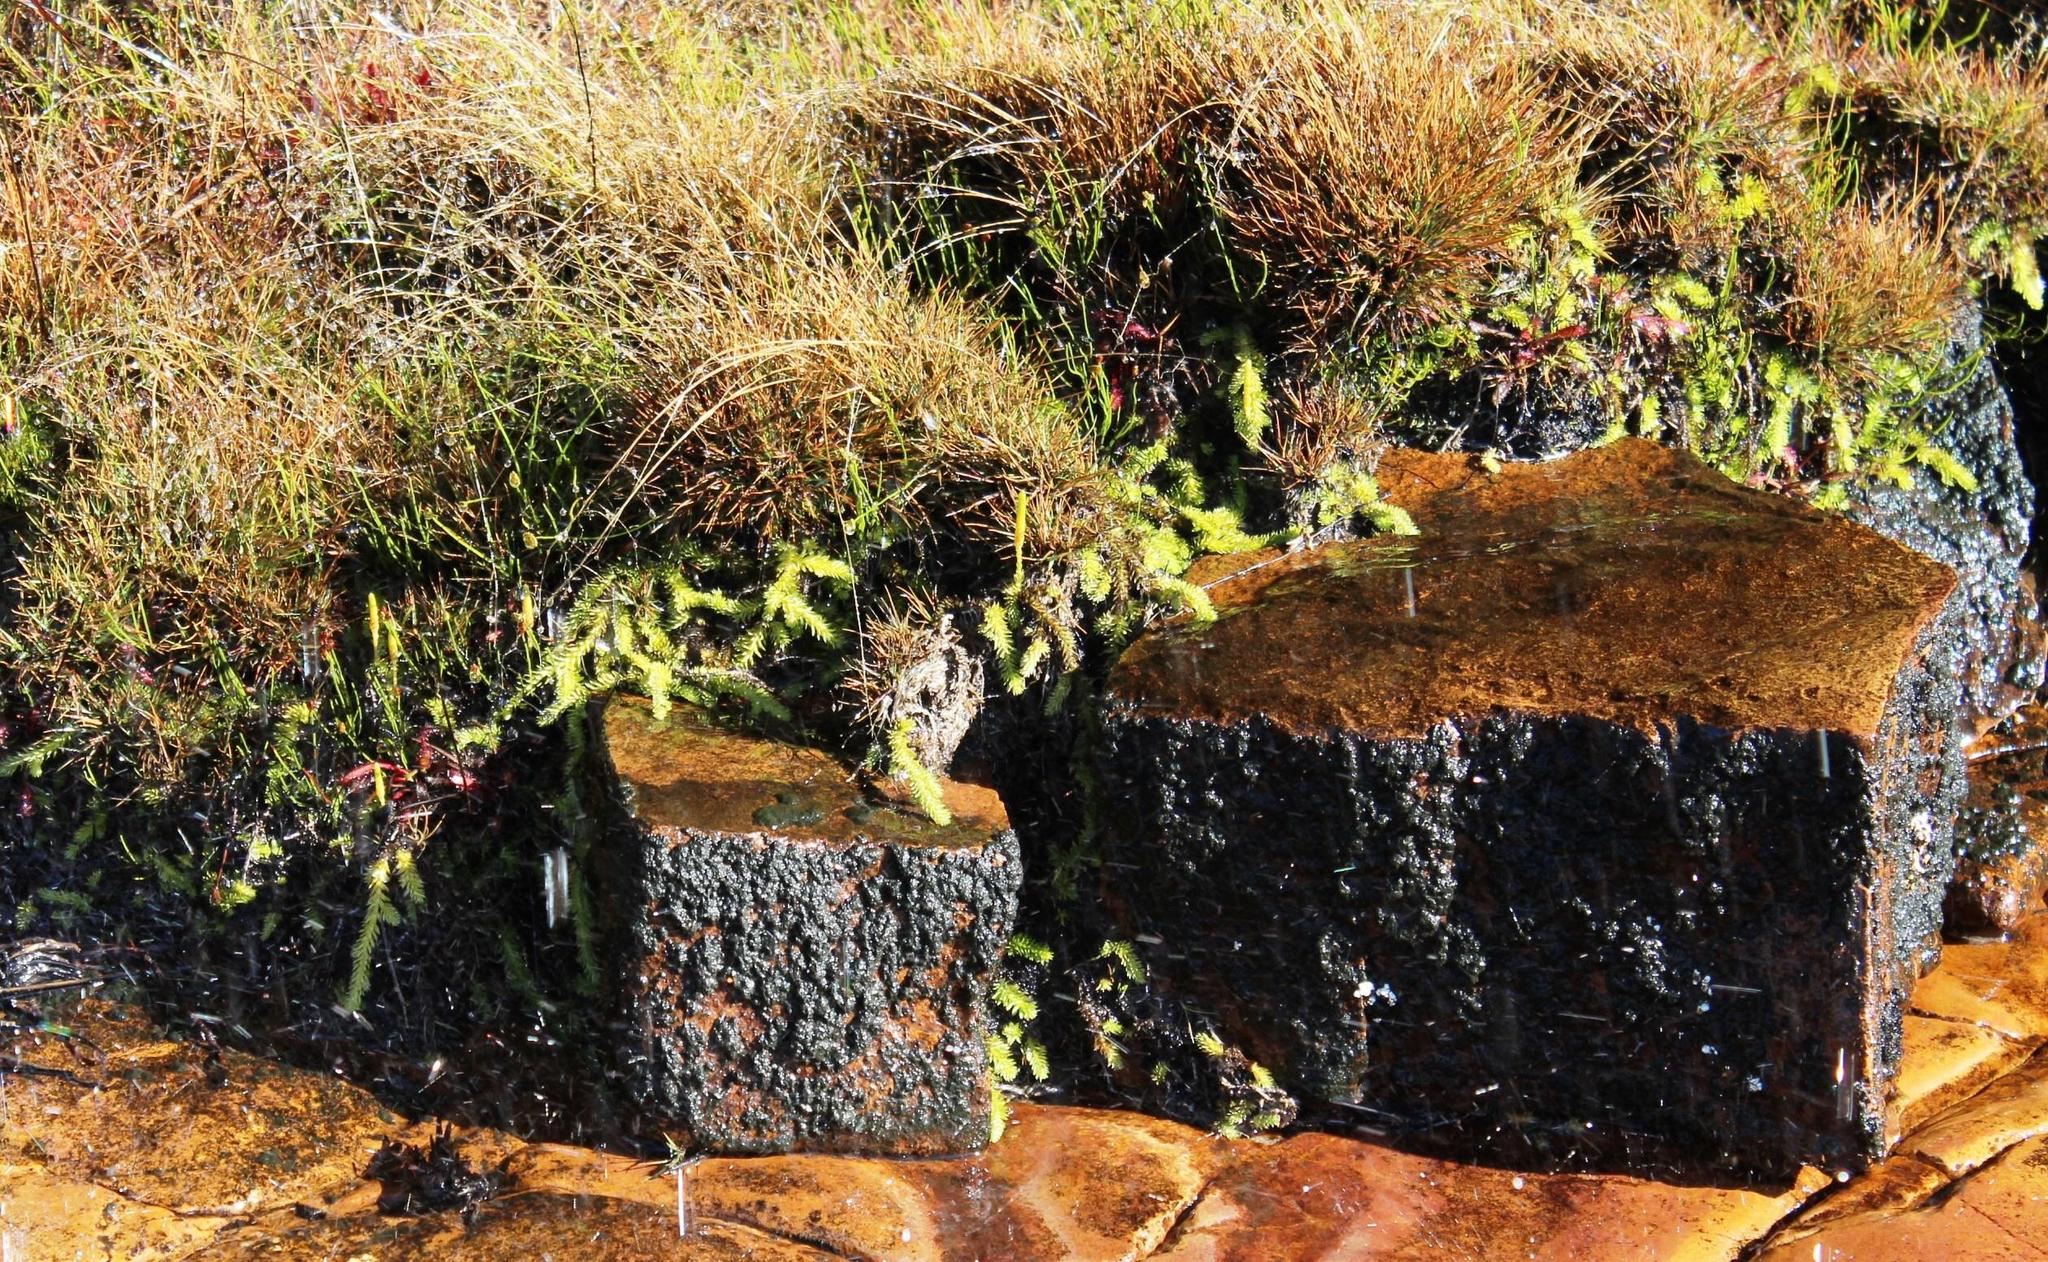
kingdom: Plantae
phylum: Tracheophyta
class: Lycopodiopsida
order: Lycopodiales
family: Lycopodiaceae
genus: Pseudolycopodiella
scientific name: Pseudolycopodiella caroliniana
